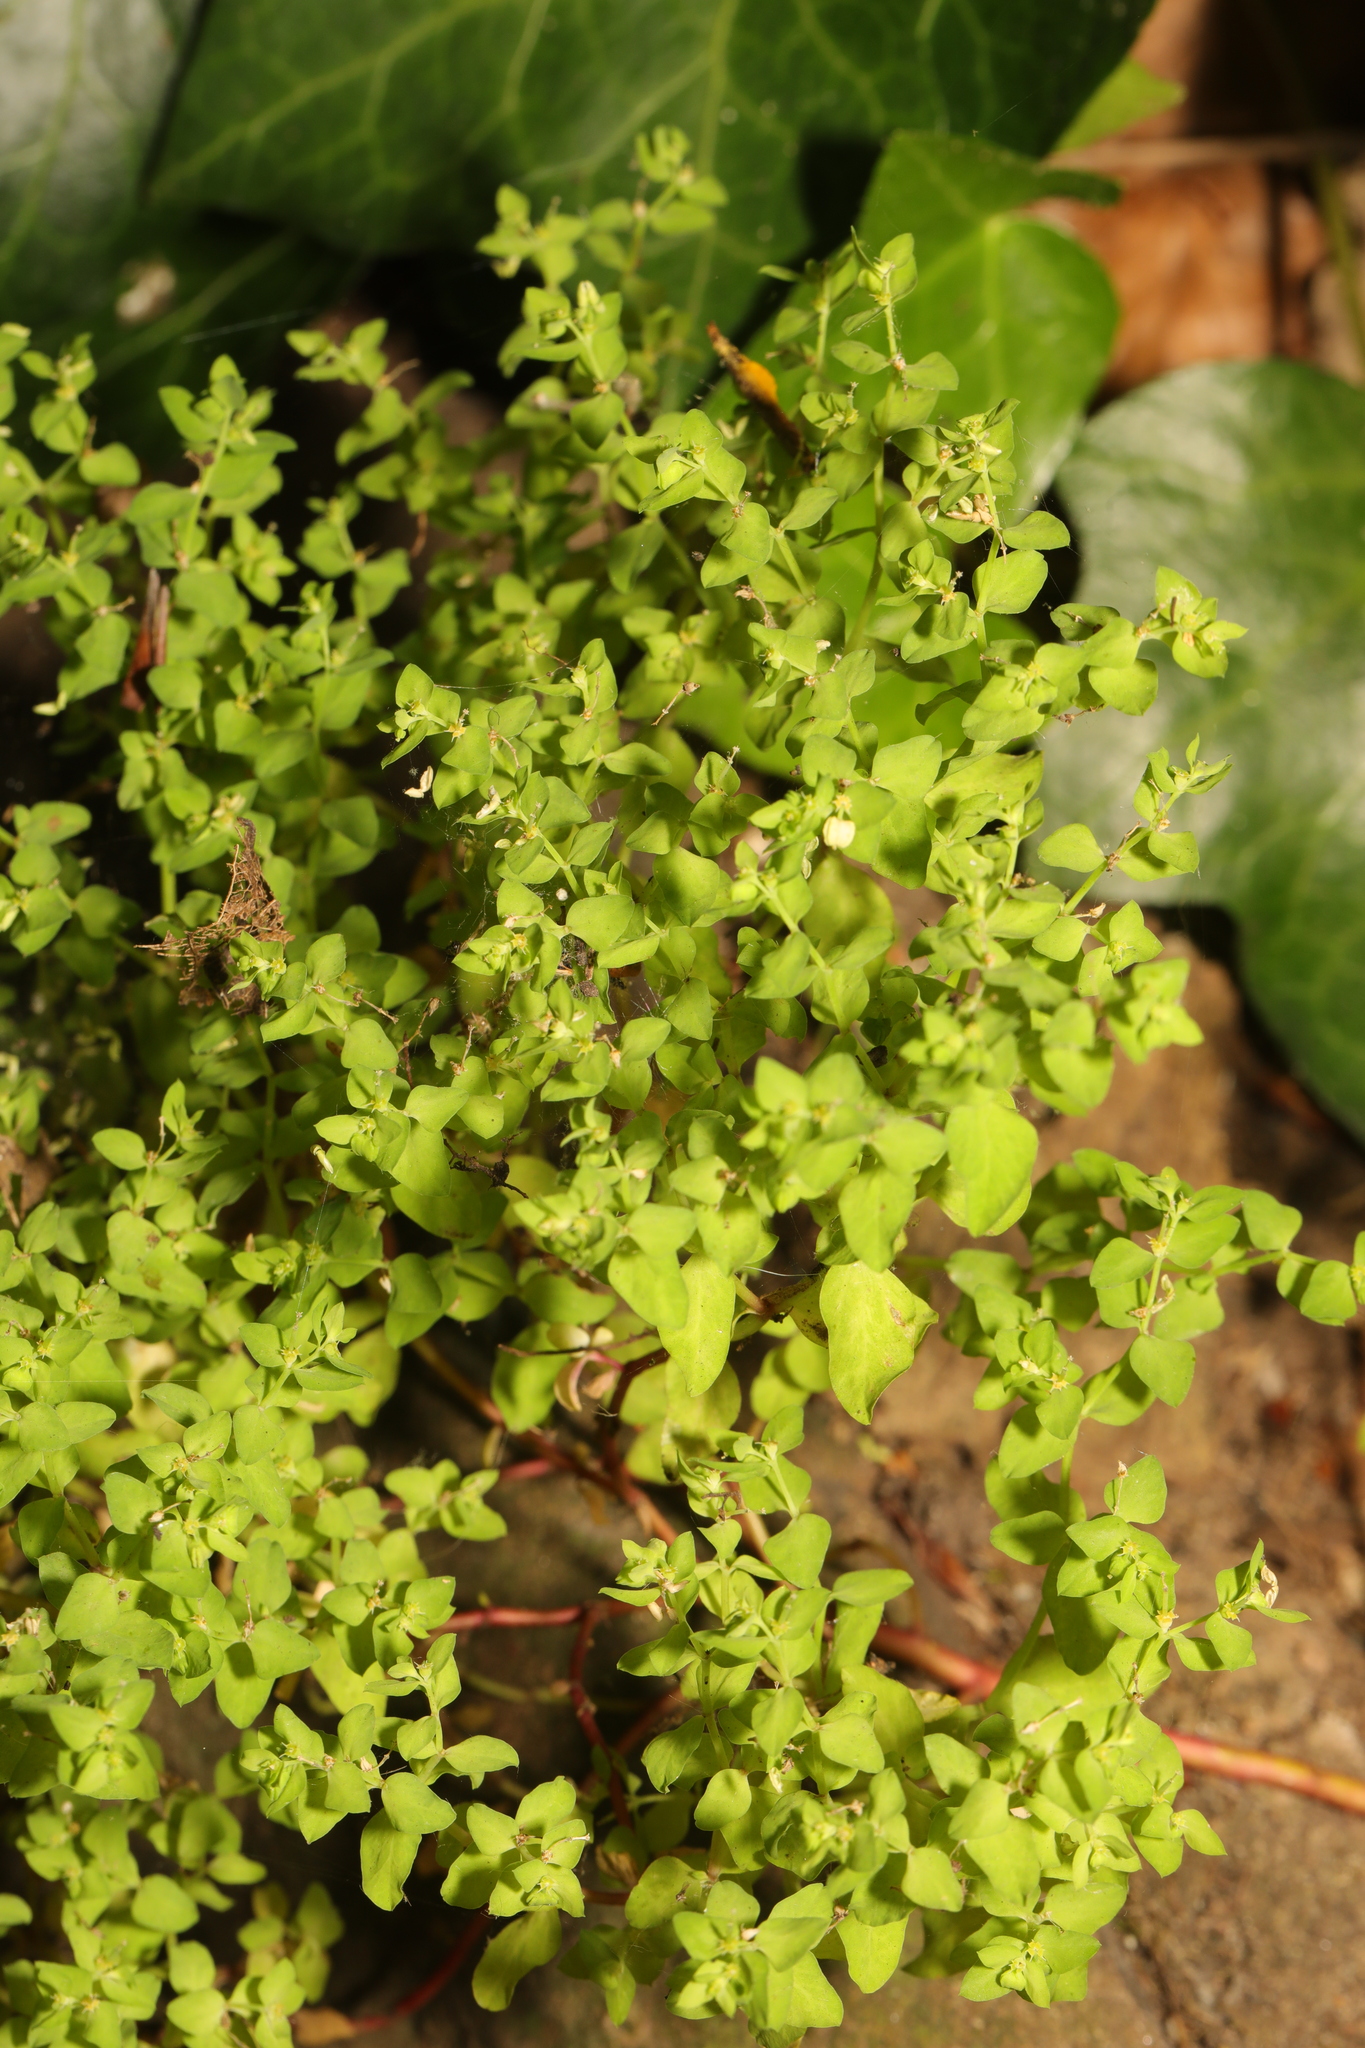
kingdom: Plantae
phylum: Tracheophyta
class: Magnoliopsida
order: Malpighiales
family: Euphorbiaceae
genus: Euphorbia
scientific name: Euphorbia peplus
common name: Petty spurge
